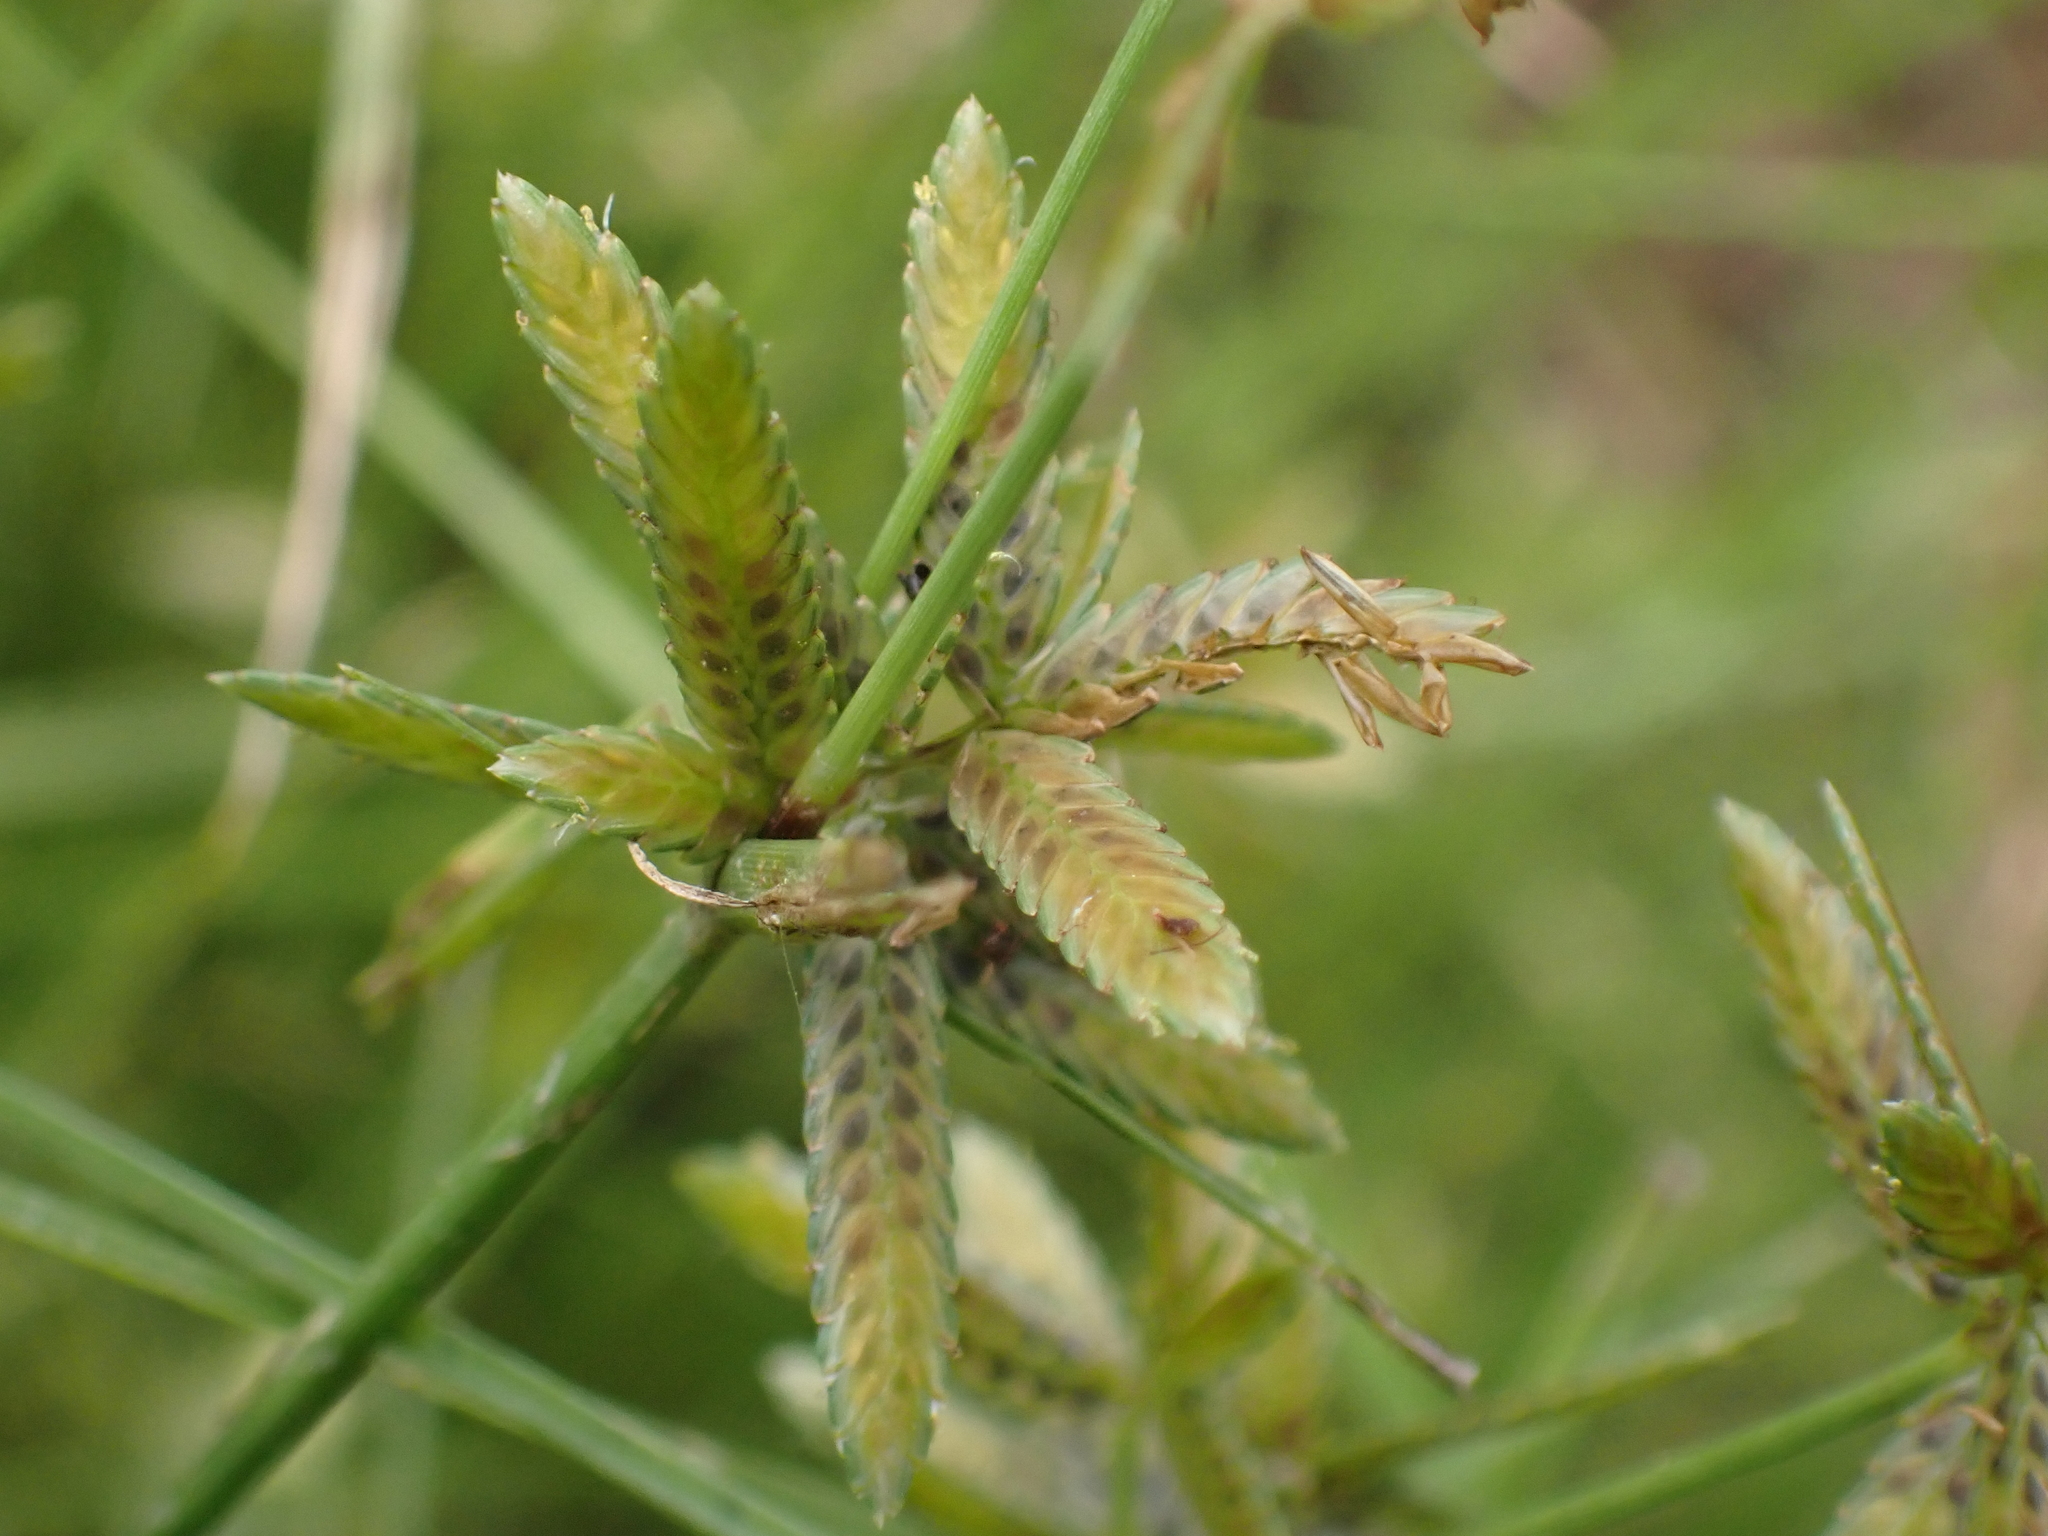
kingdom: Plantae
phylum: Tracheophyta
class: Liliopsida
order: Poales
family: Cyperaceae
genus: Cyperus
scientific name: Cyperus flavescens
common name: Yellow galingale
